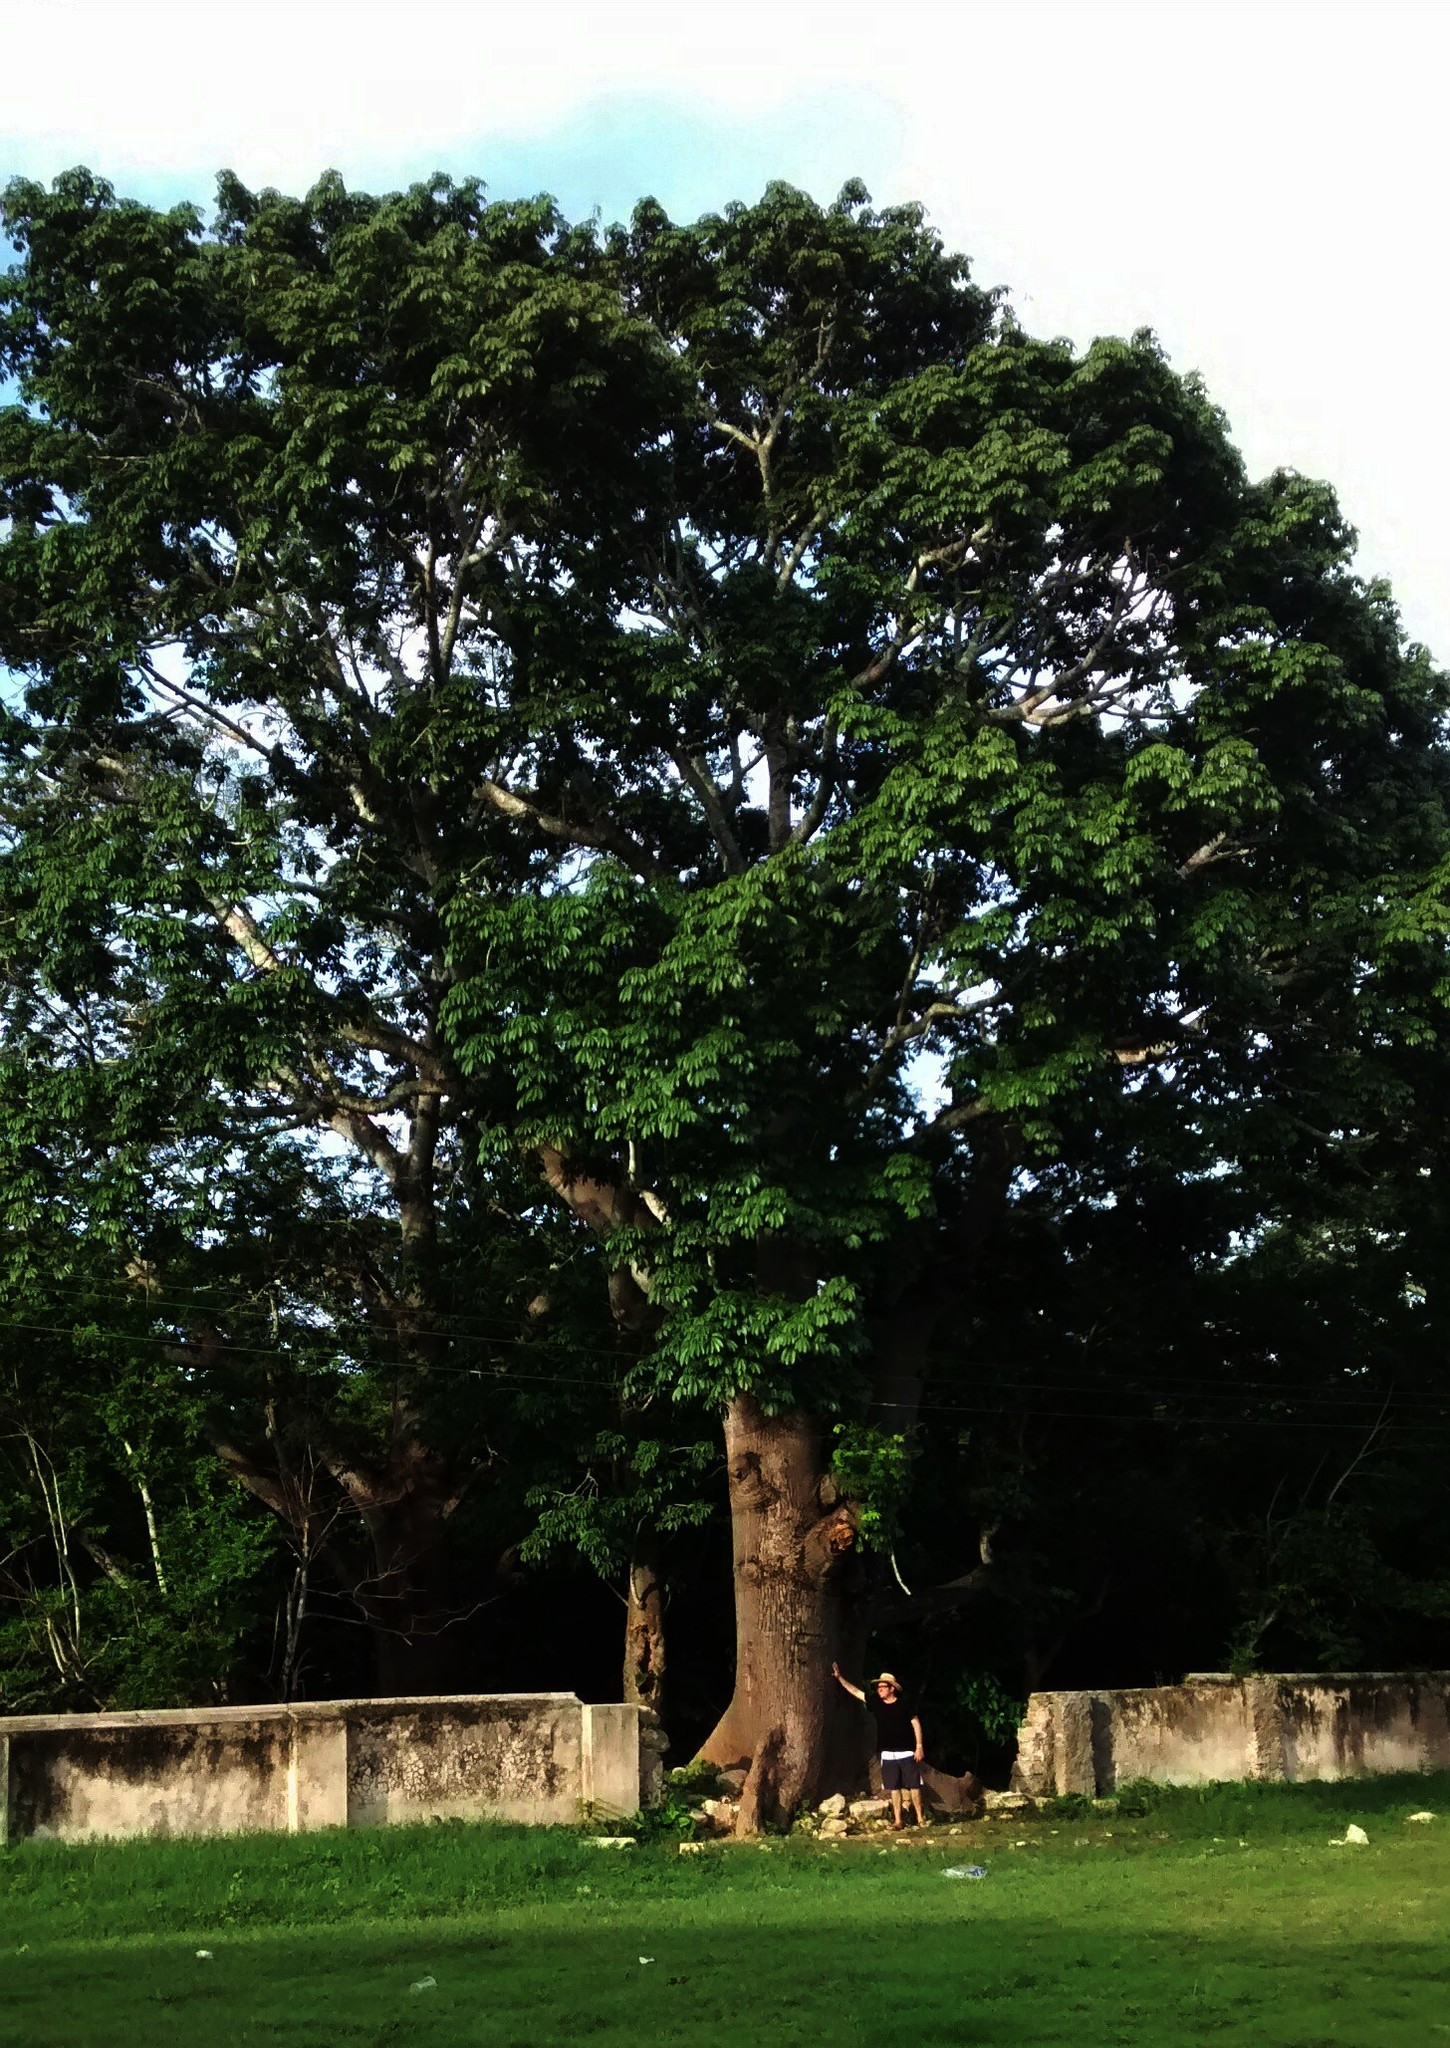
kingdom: Plantae
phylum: Tracheophyta
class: Magnoliopsida
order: Malvales
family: Malvaceae
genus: Ceiba
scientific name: Ceiba pentandra
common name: Kapok
